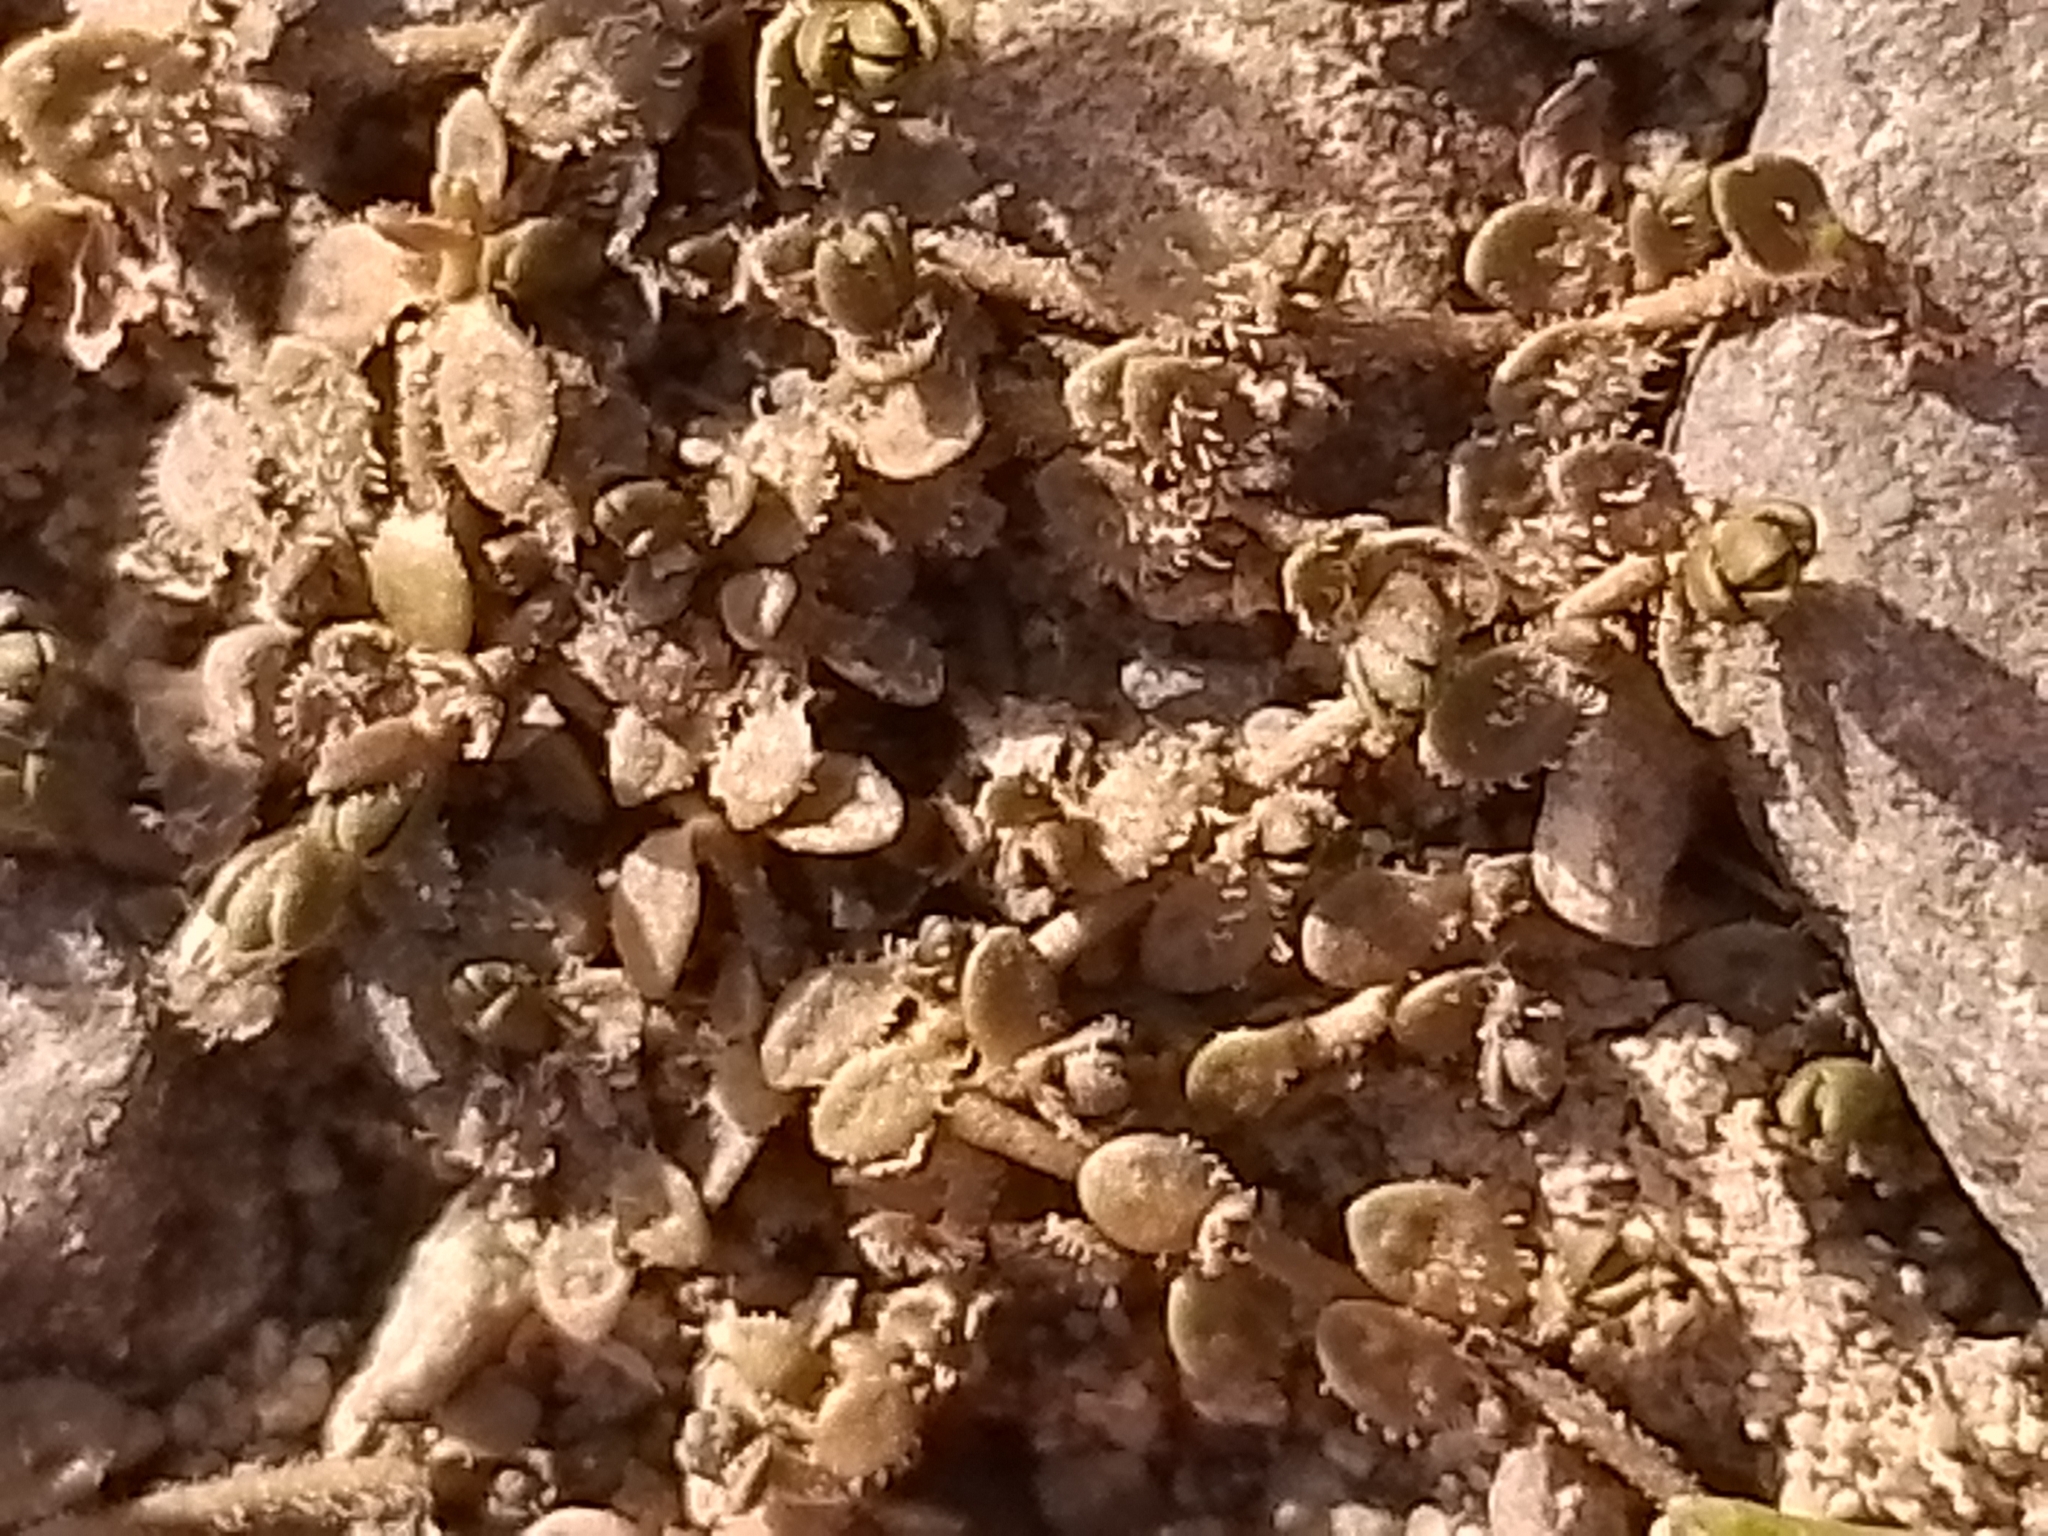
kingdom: Plantae
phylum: Tracheophyta
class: Magnoliopsida
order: Lamiales
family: Plantaginaceae
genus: Veronica
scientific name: Veronica lilliputiana
